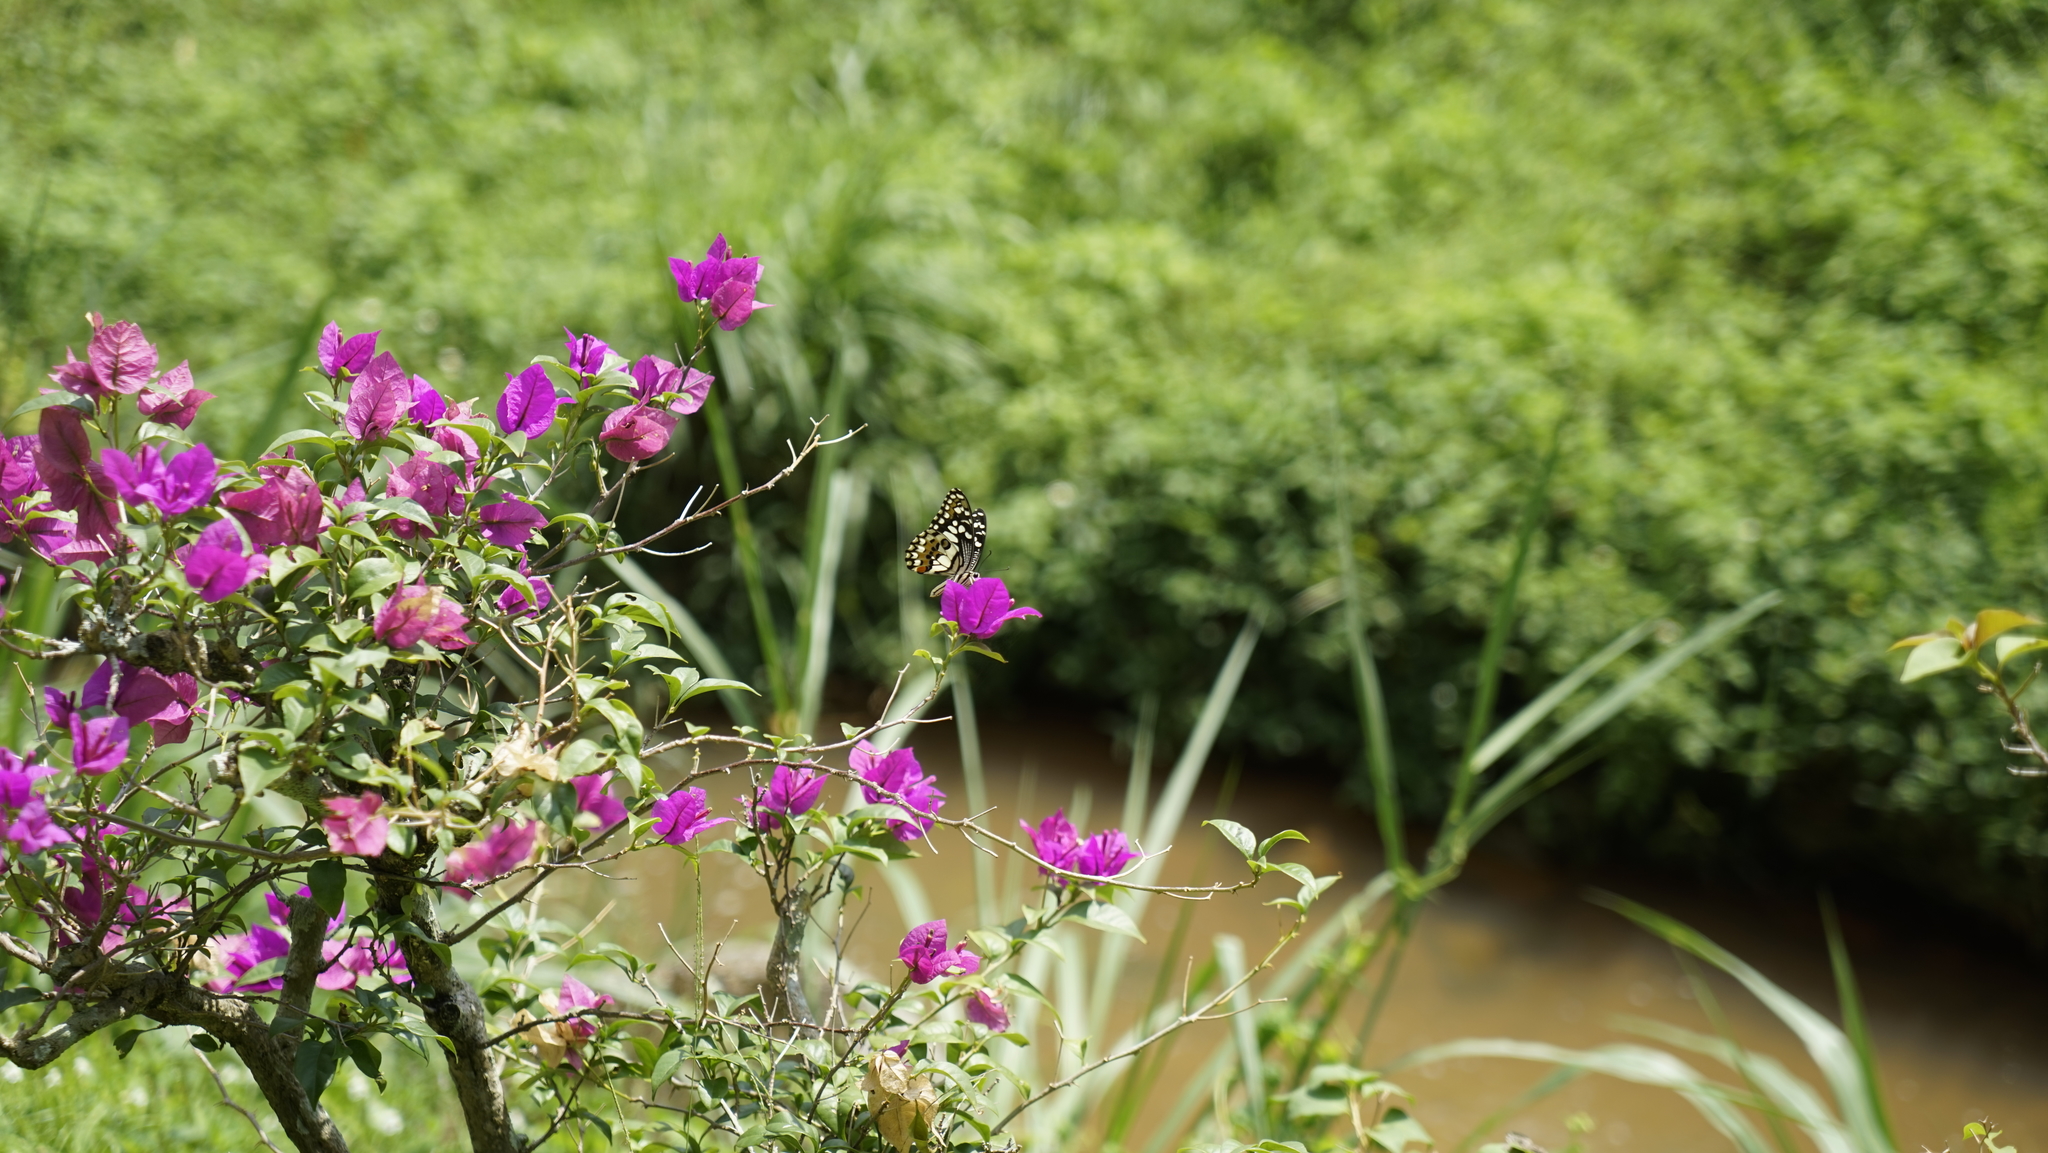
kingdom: Animalia
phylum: Arthropoda
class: Insecta
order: Lepidoptera
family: Papilionidae
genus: Papilio
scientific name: Papilio demoleus
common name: Lime butterfly
